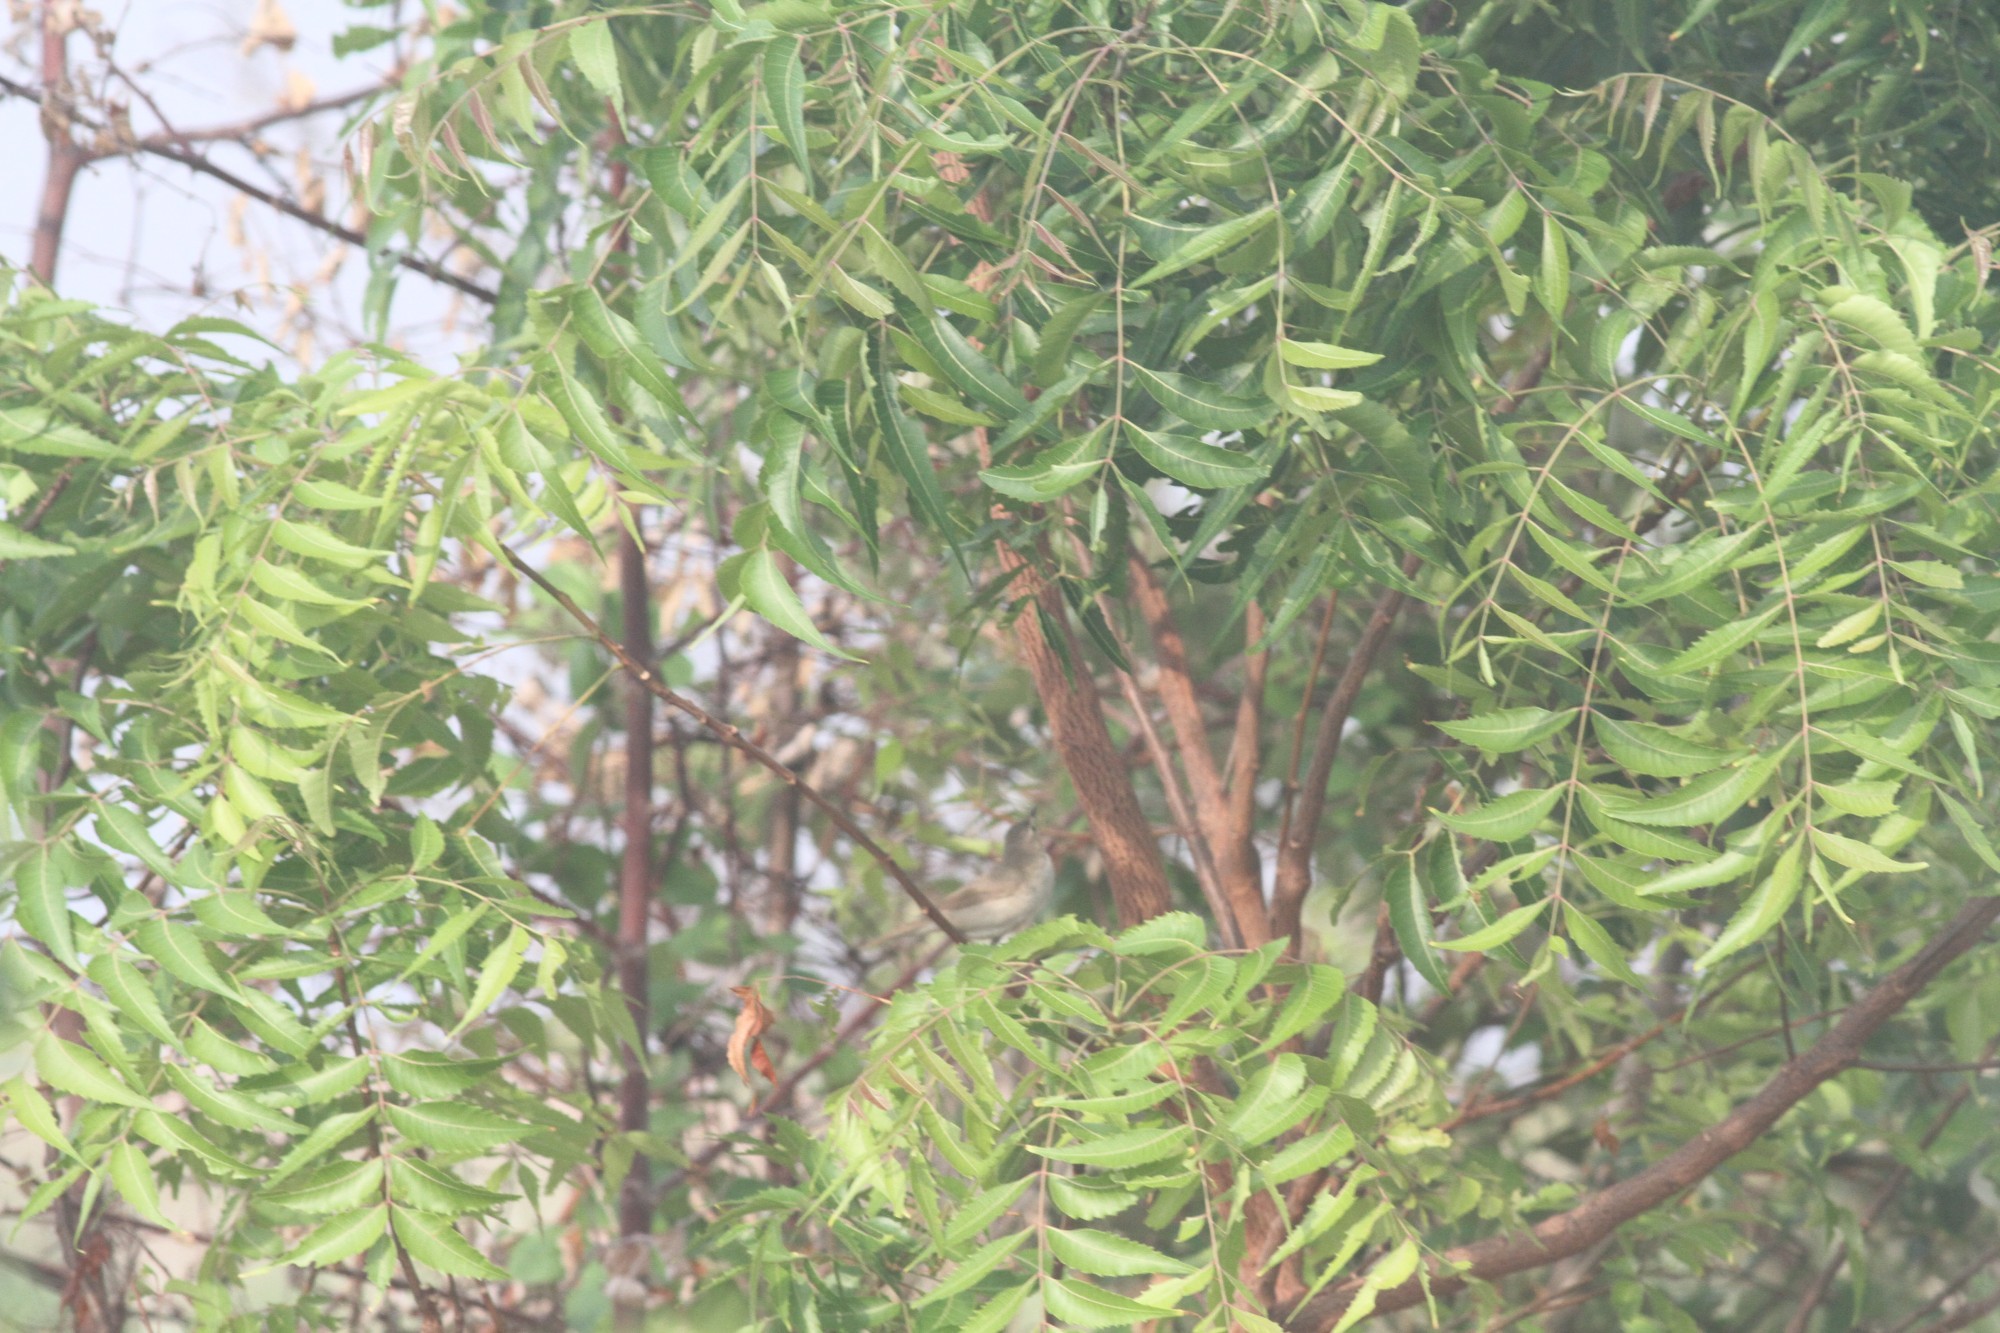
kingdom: Plantae
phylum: Tracheophyta
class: Magnoliopsida
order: Sapindales
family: Meliaceae
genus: Azadirachta
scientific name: Azadirachta indica
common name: Neem
